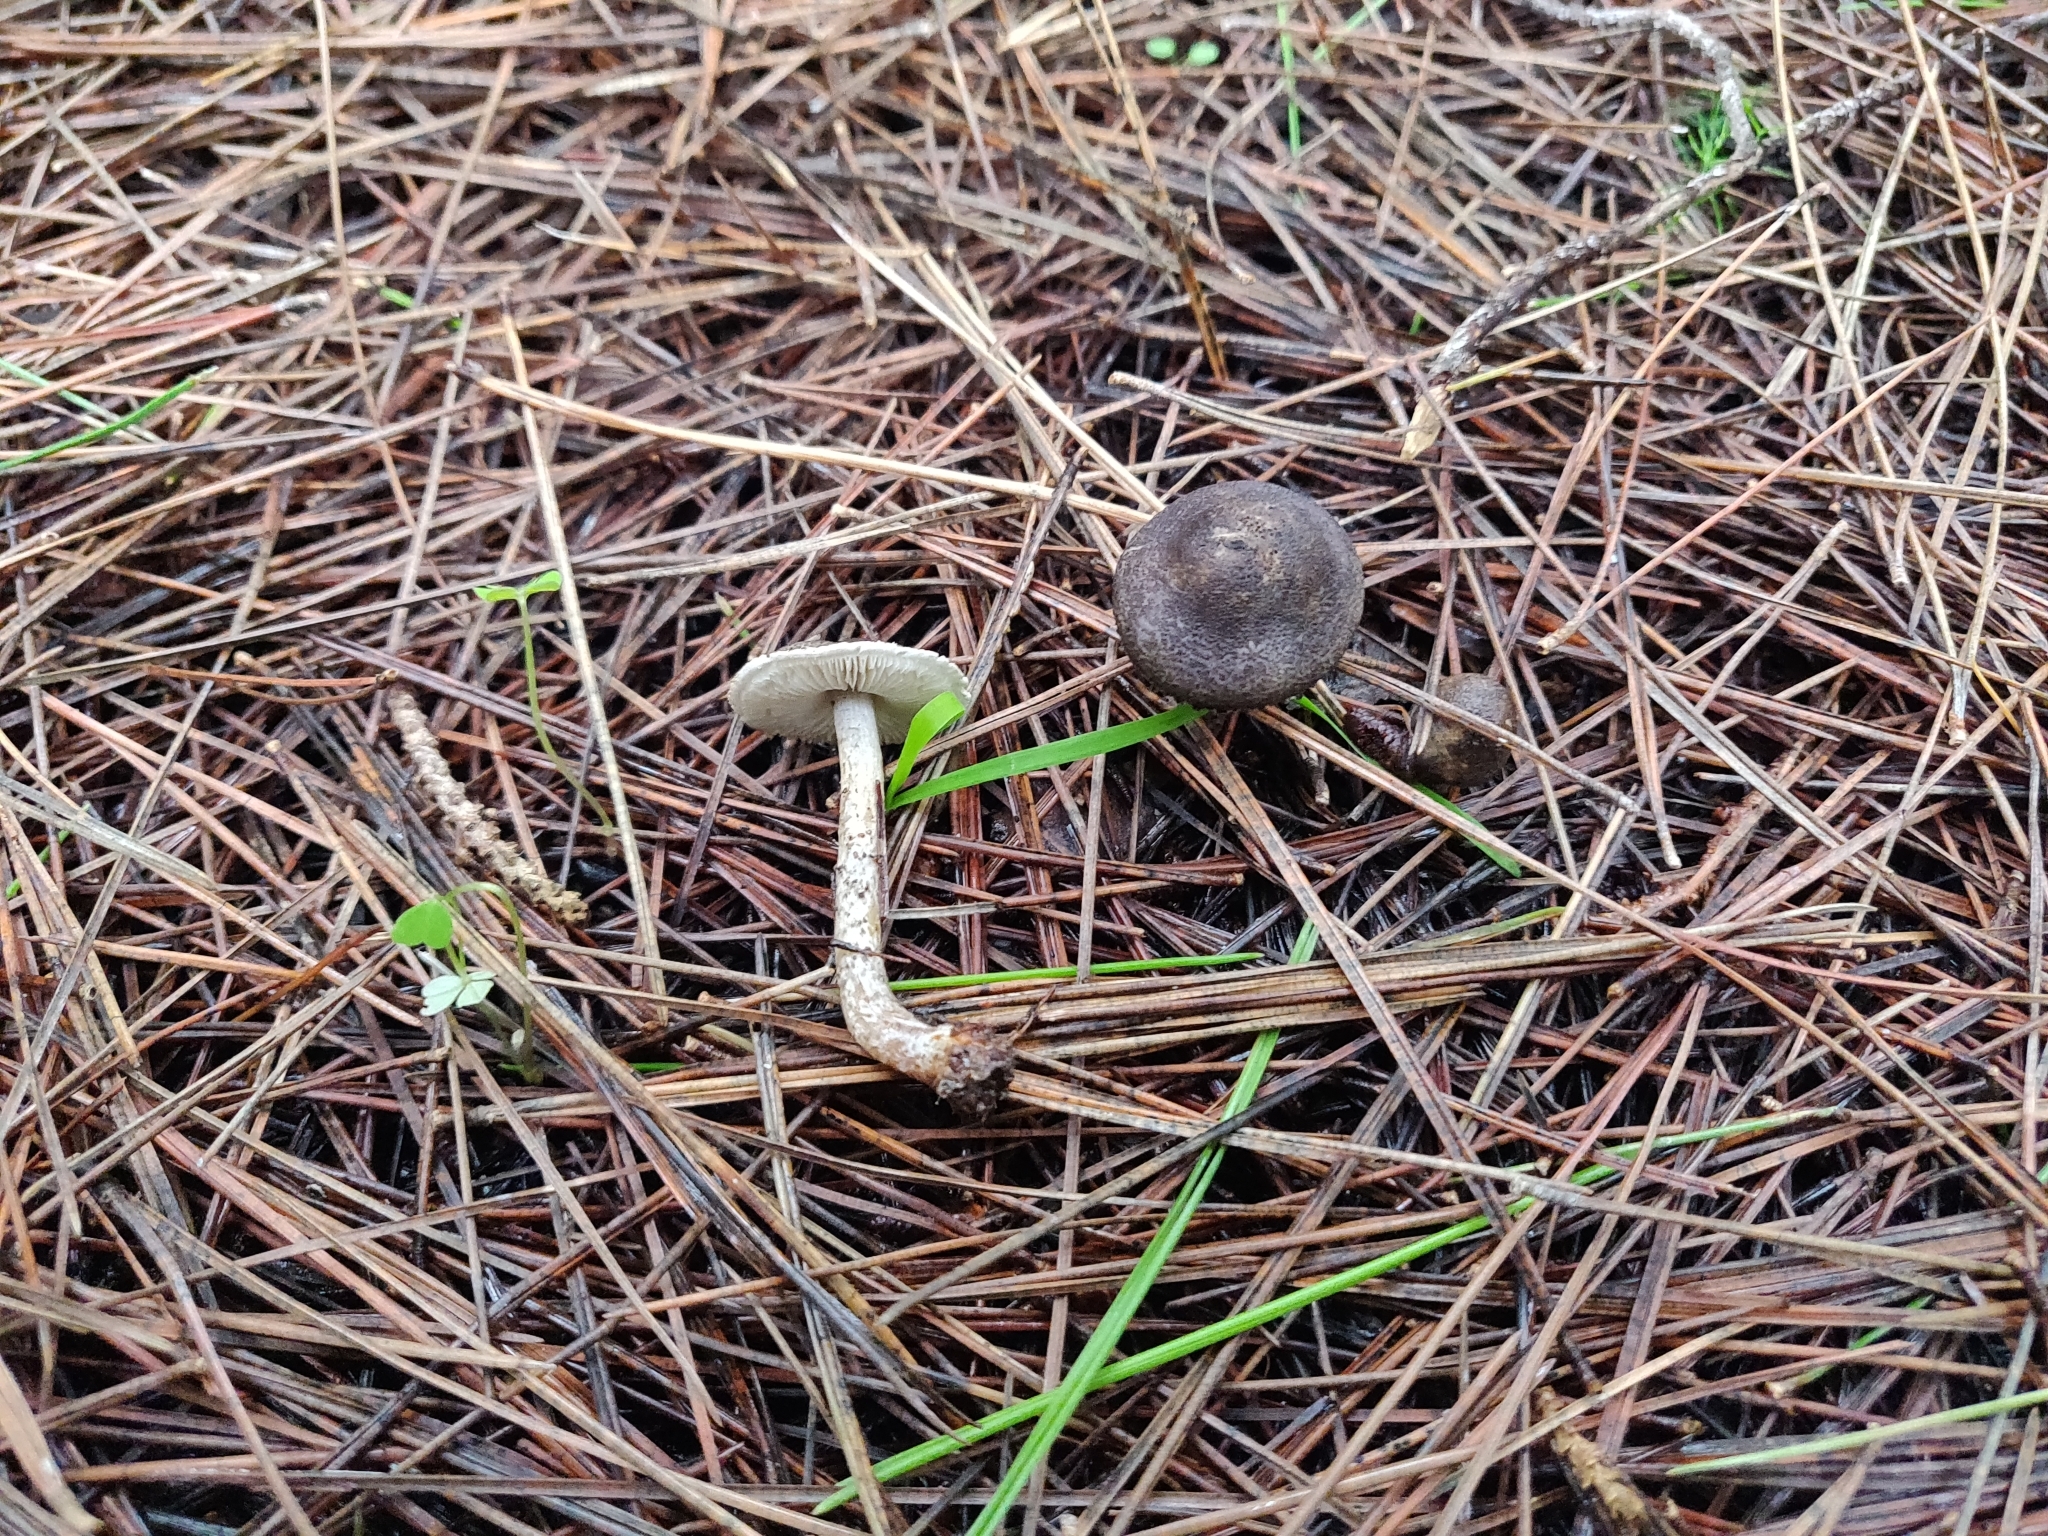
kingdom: Fungi
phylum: Basidiomycota
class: Agaricomycetes
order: Agaricales
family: Agaricaceae
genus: Lepiota
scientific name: Lepiota griseovirens
